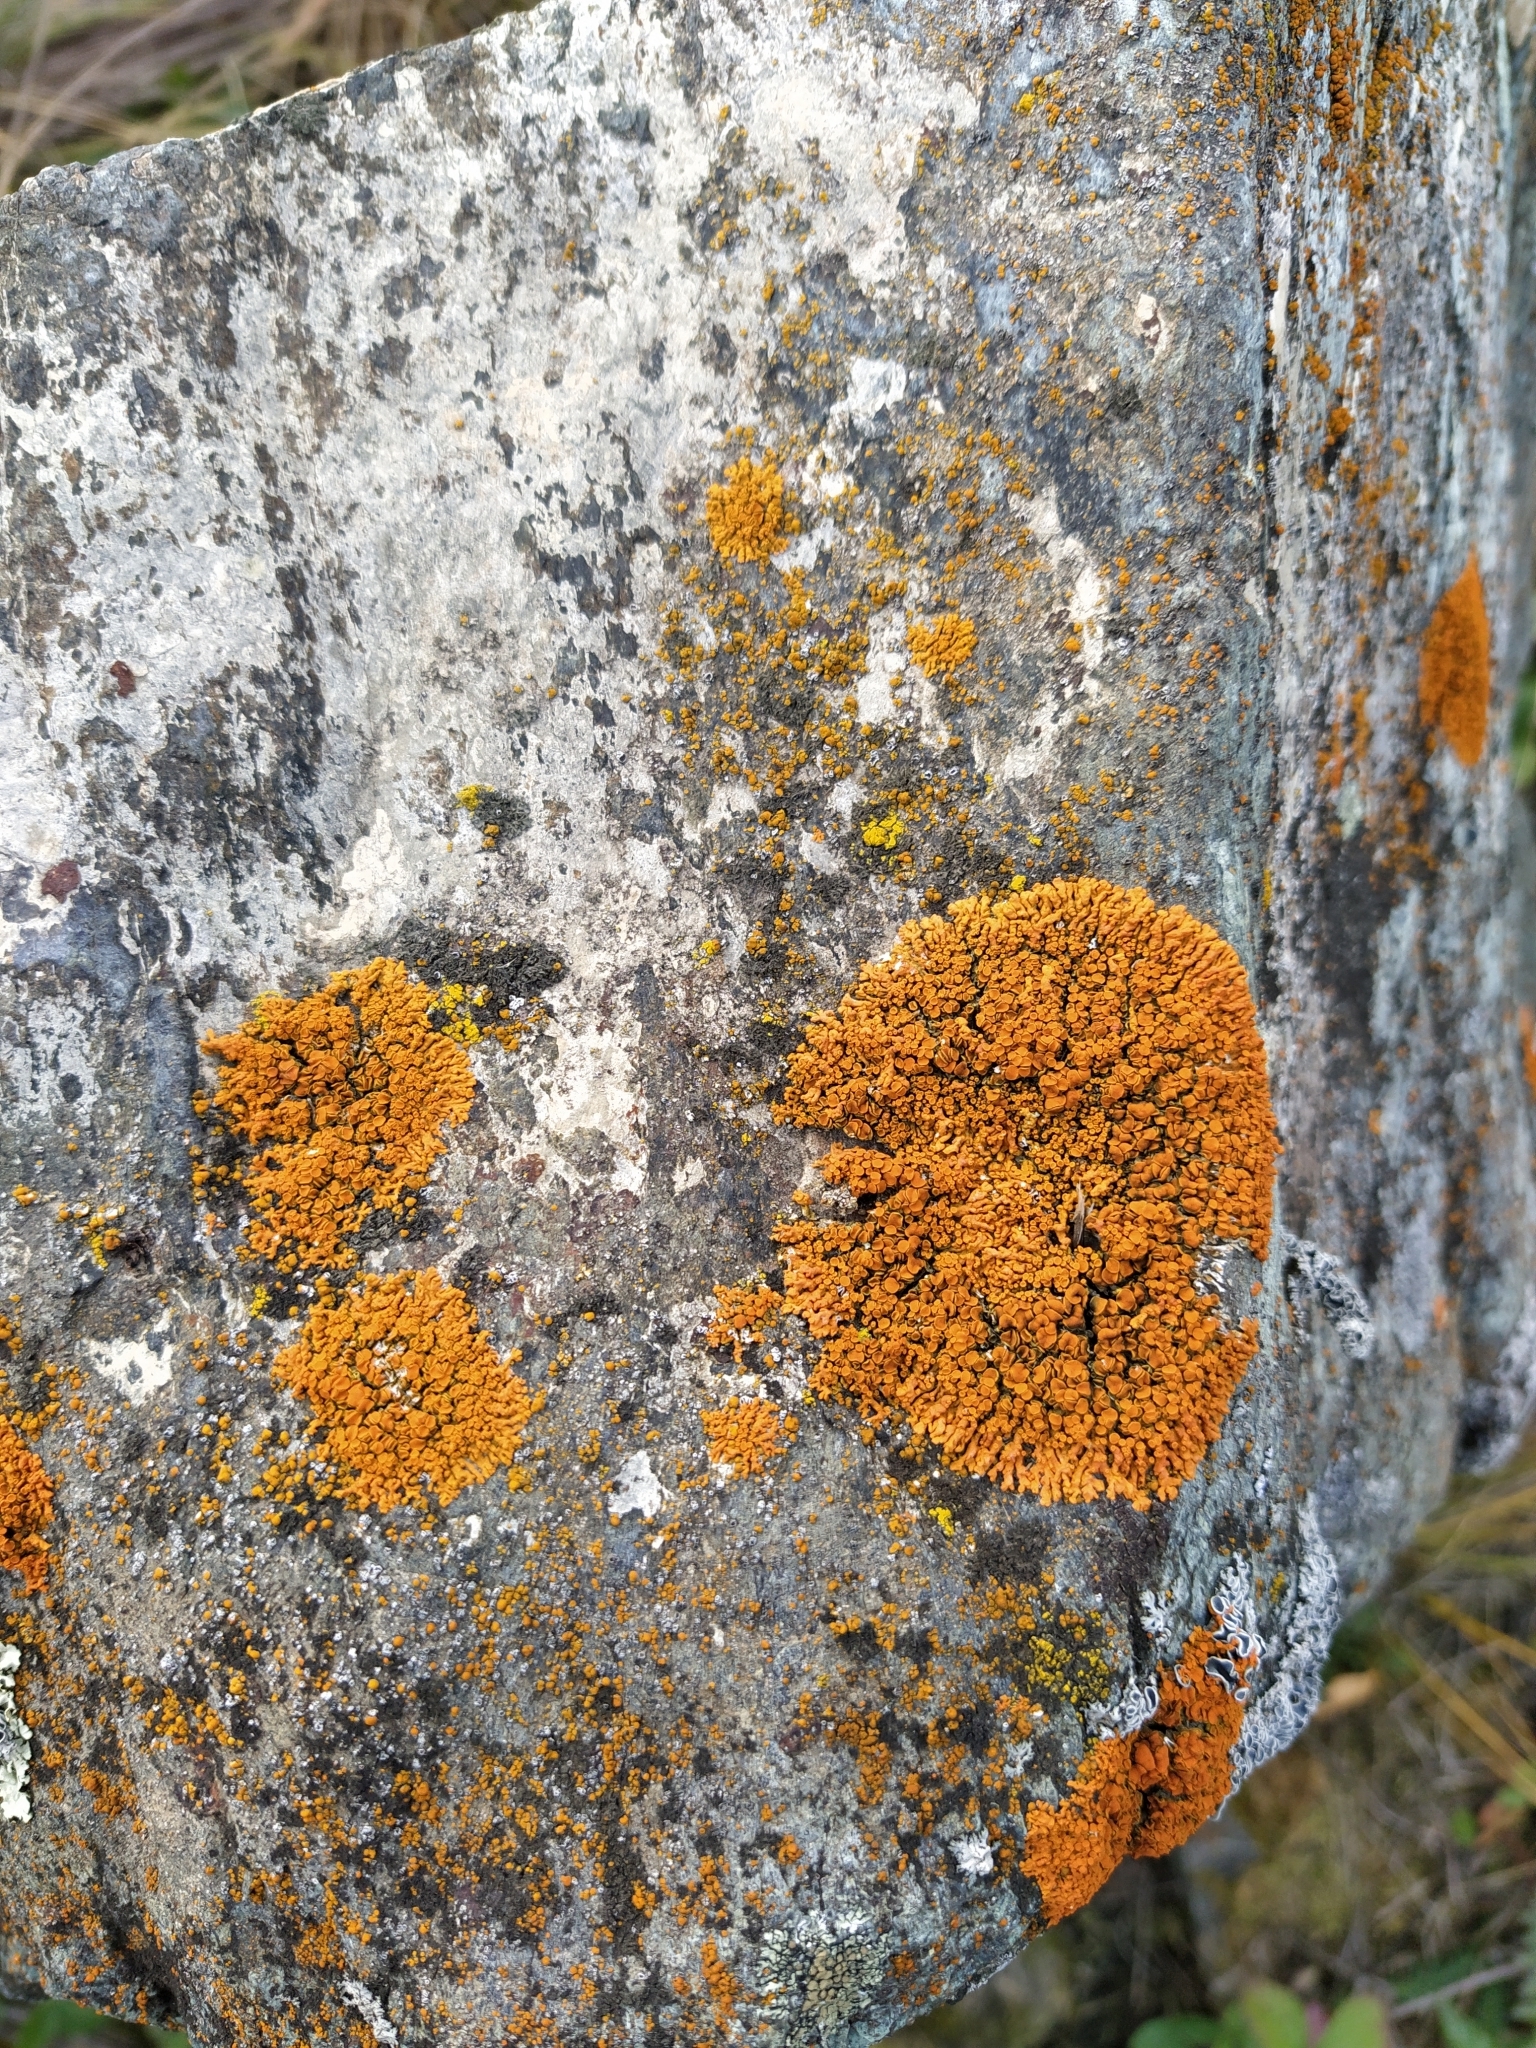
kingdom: Fungi
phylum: Ascomycota
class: Lecanoromycetes
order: Teloschistales
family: Teloschistaceae
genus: Xanthoria
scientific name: Xanthoria parietina
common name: Common orange lichen
